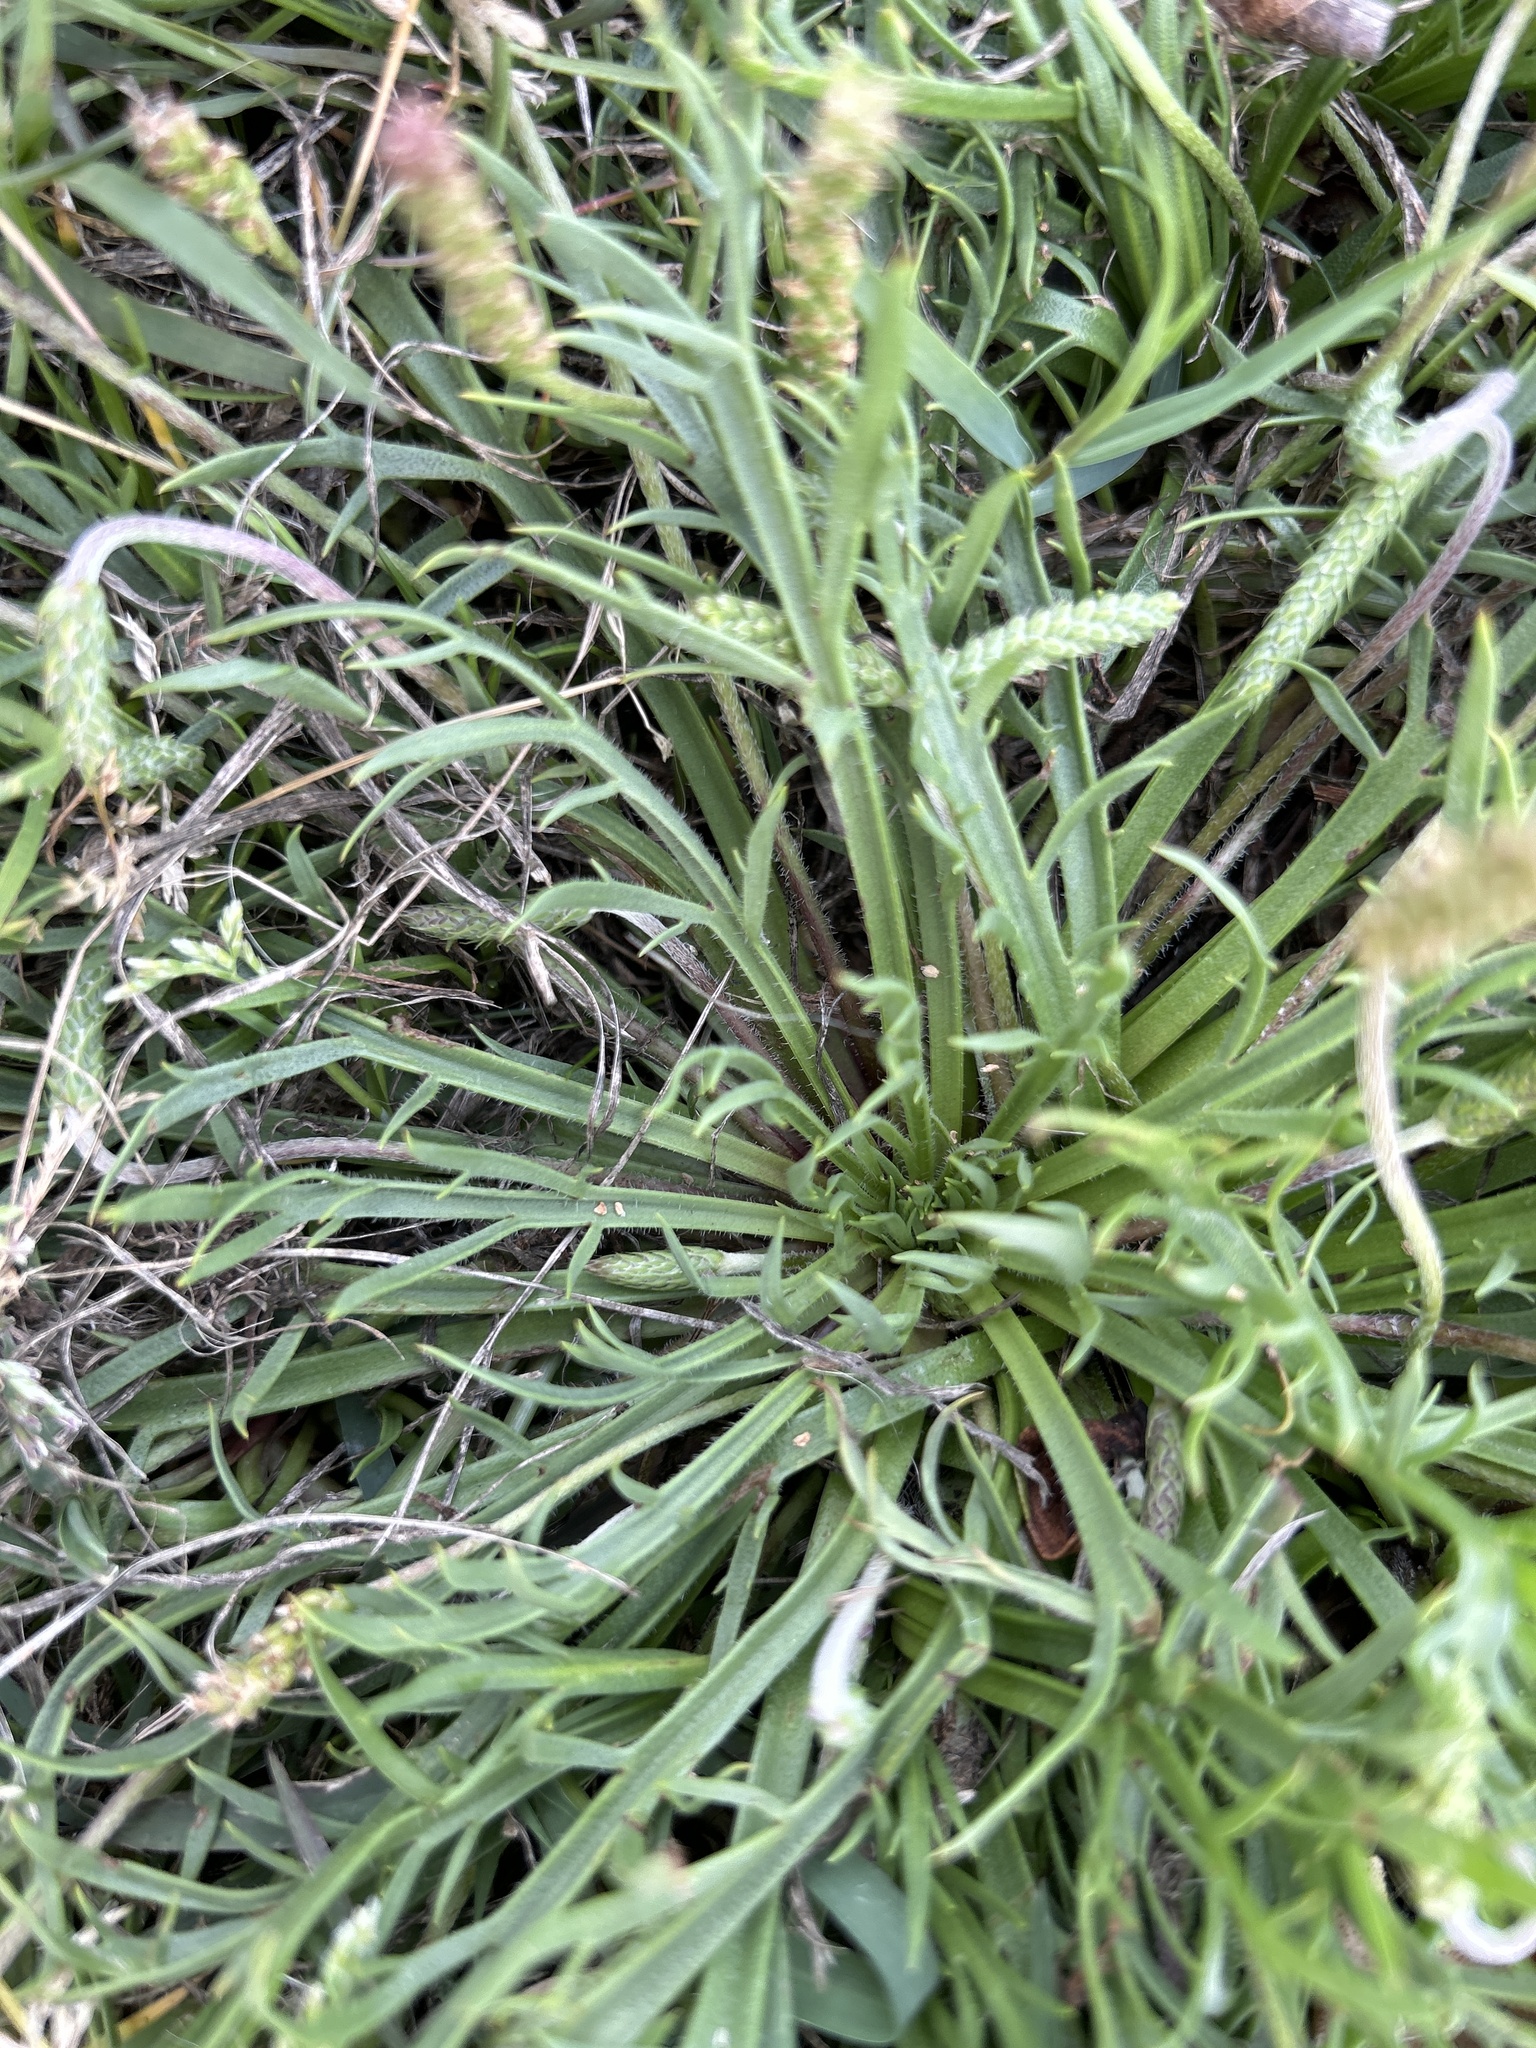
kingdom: Plantae
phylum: Tracheophyta
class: Magnoliopsida
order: Lamiales
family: Plantaginaceae
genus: Plantago
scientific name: Plantago coronopus
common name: Buck's-horn plantain
